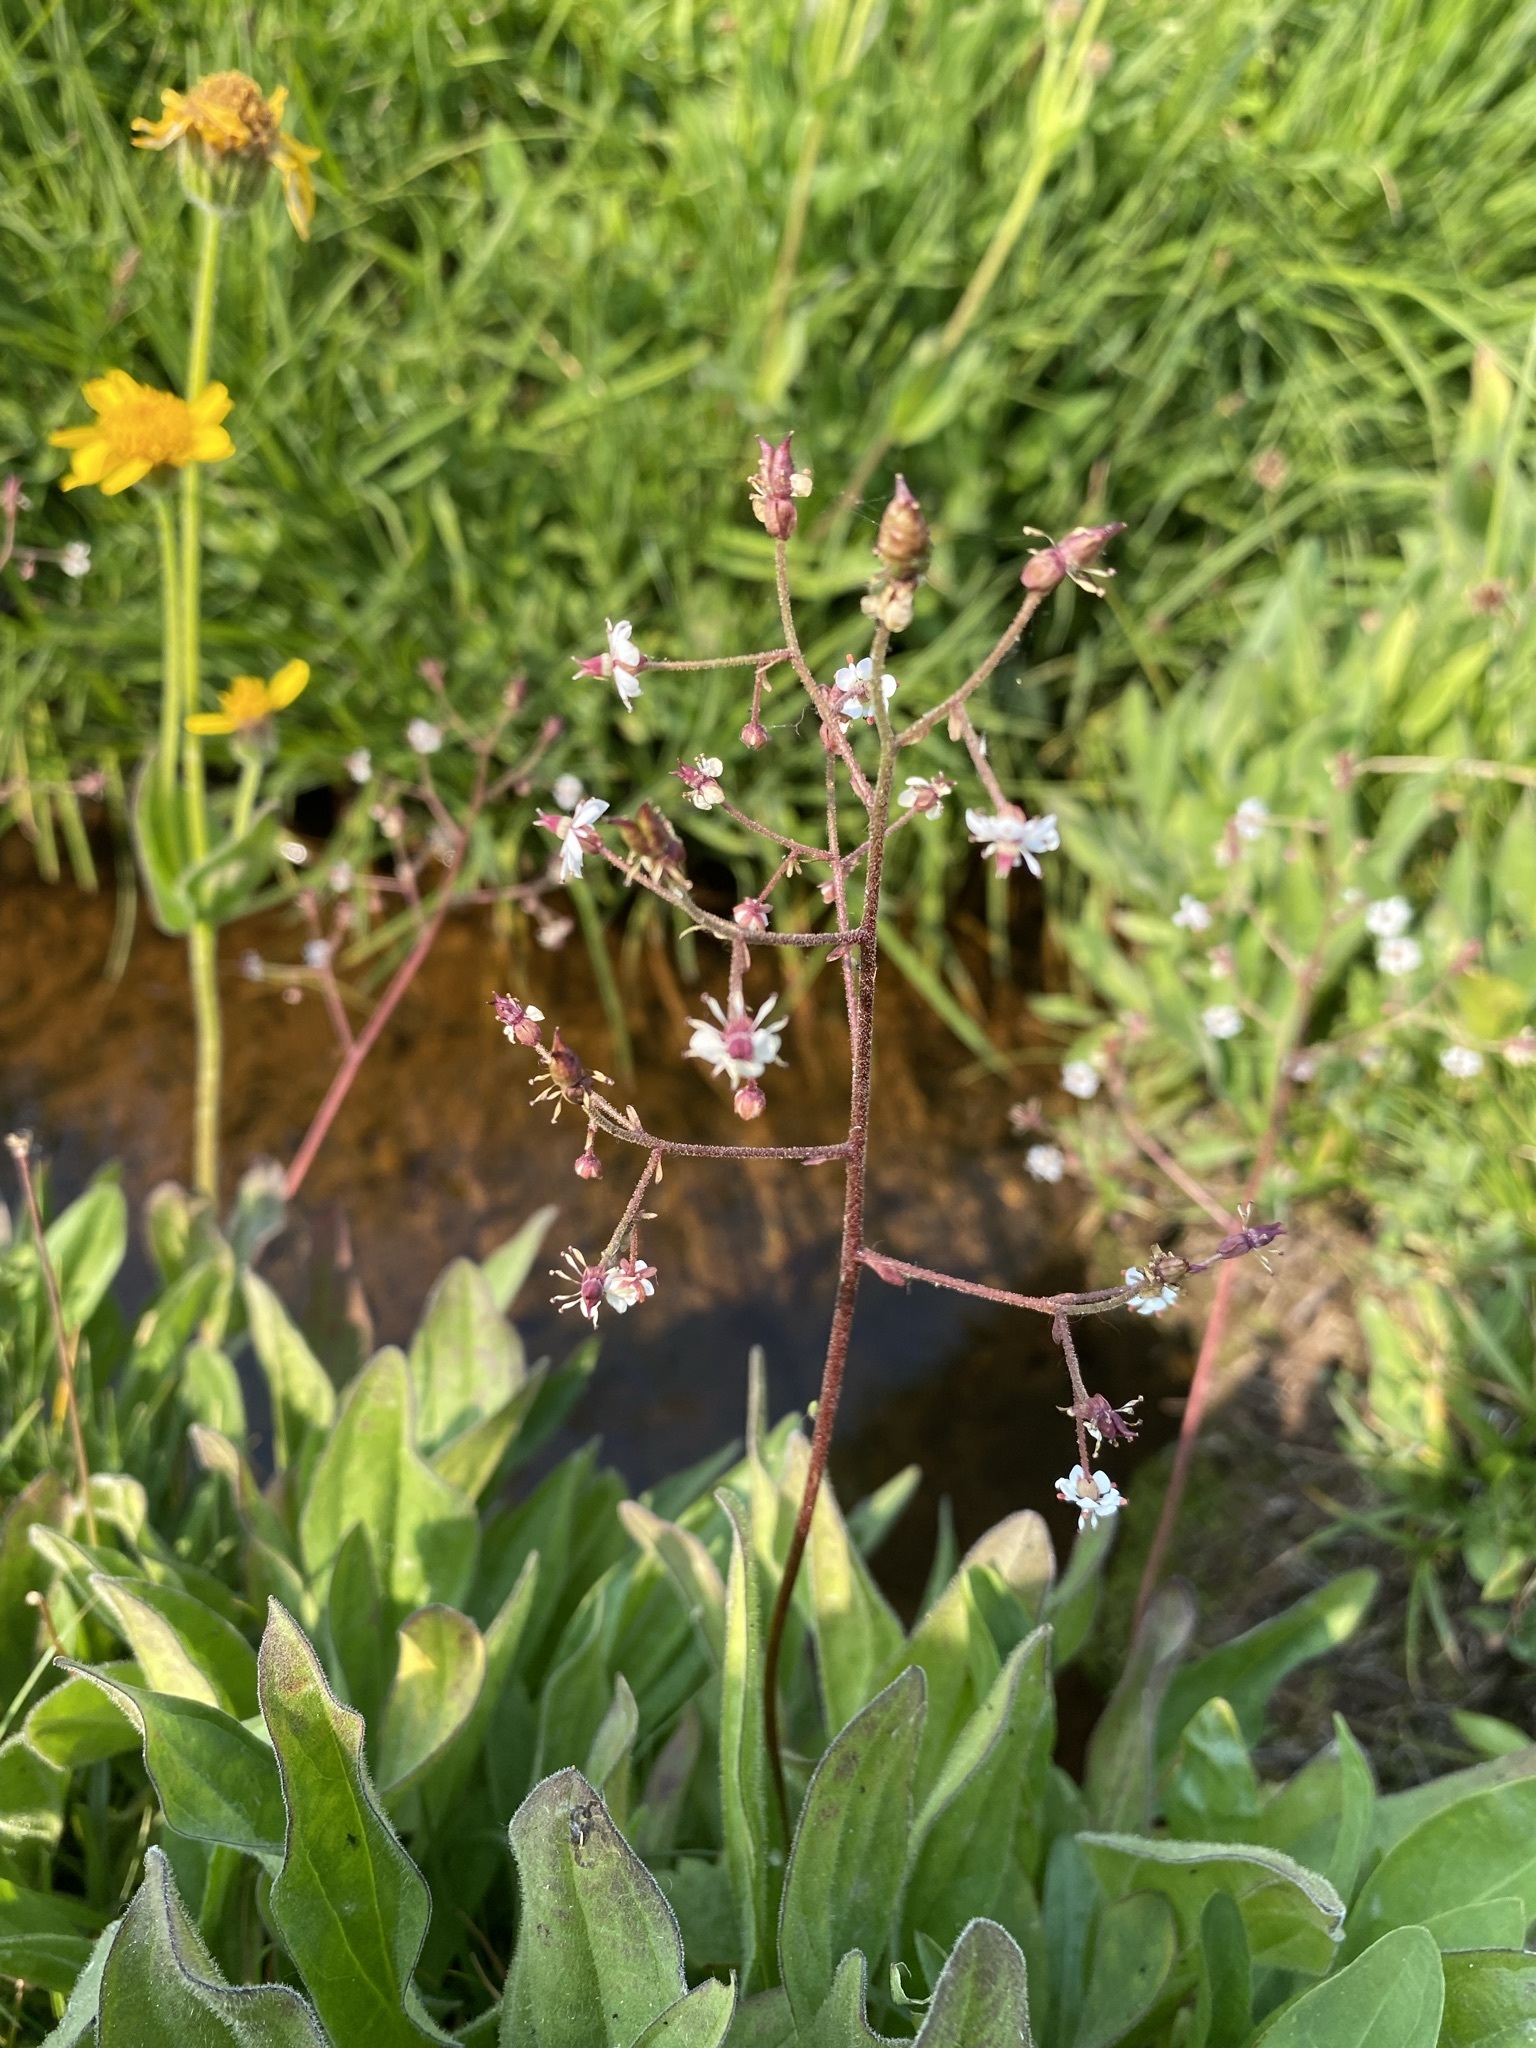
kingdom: Plantae
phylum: Tracheophyta
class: Magnoliopsida
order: Saxifragales
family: Saxifragaceae
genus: Micranthes
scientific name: Micranthes odontoloma
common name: Brook saxifrage
